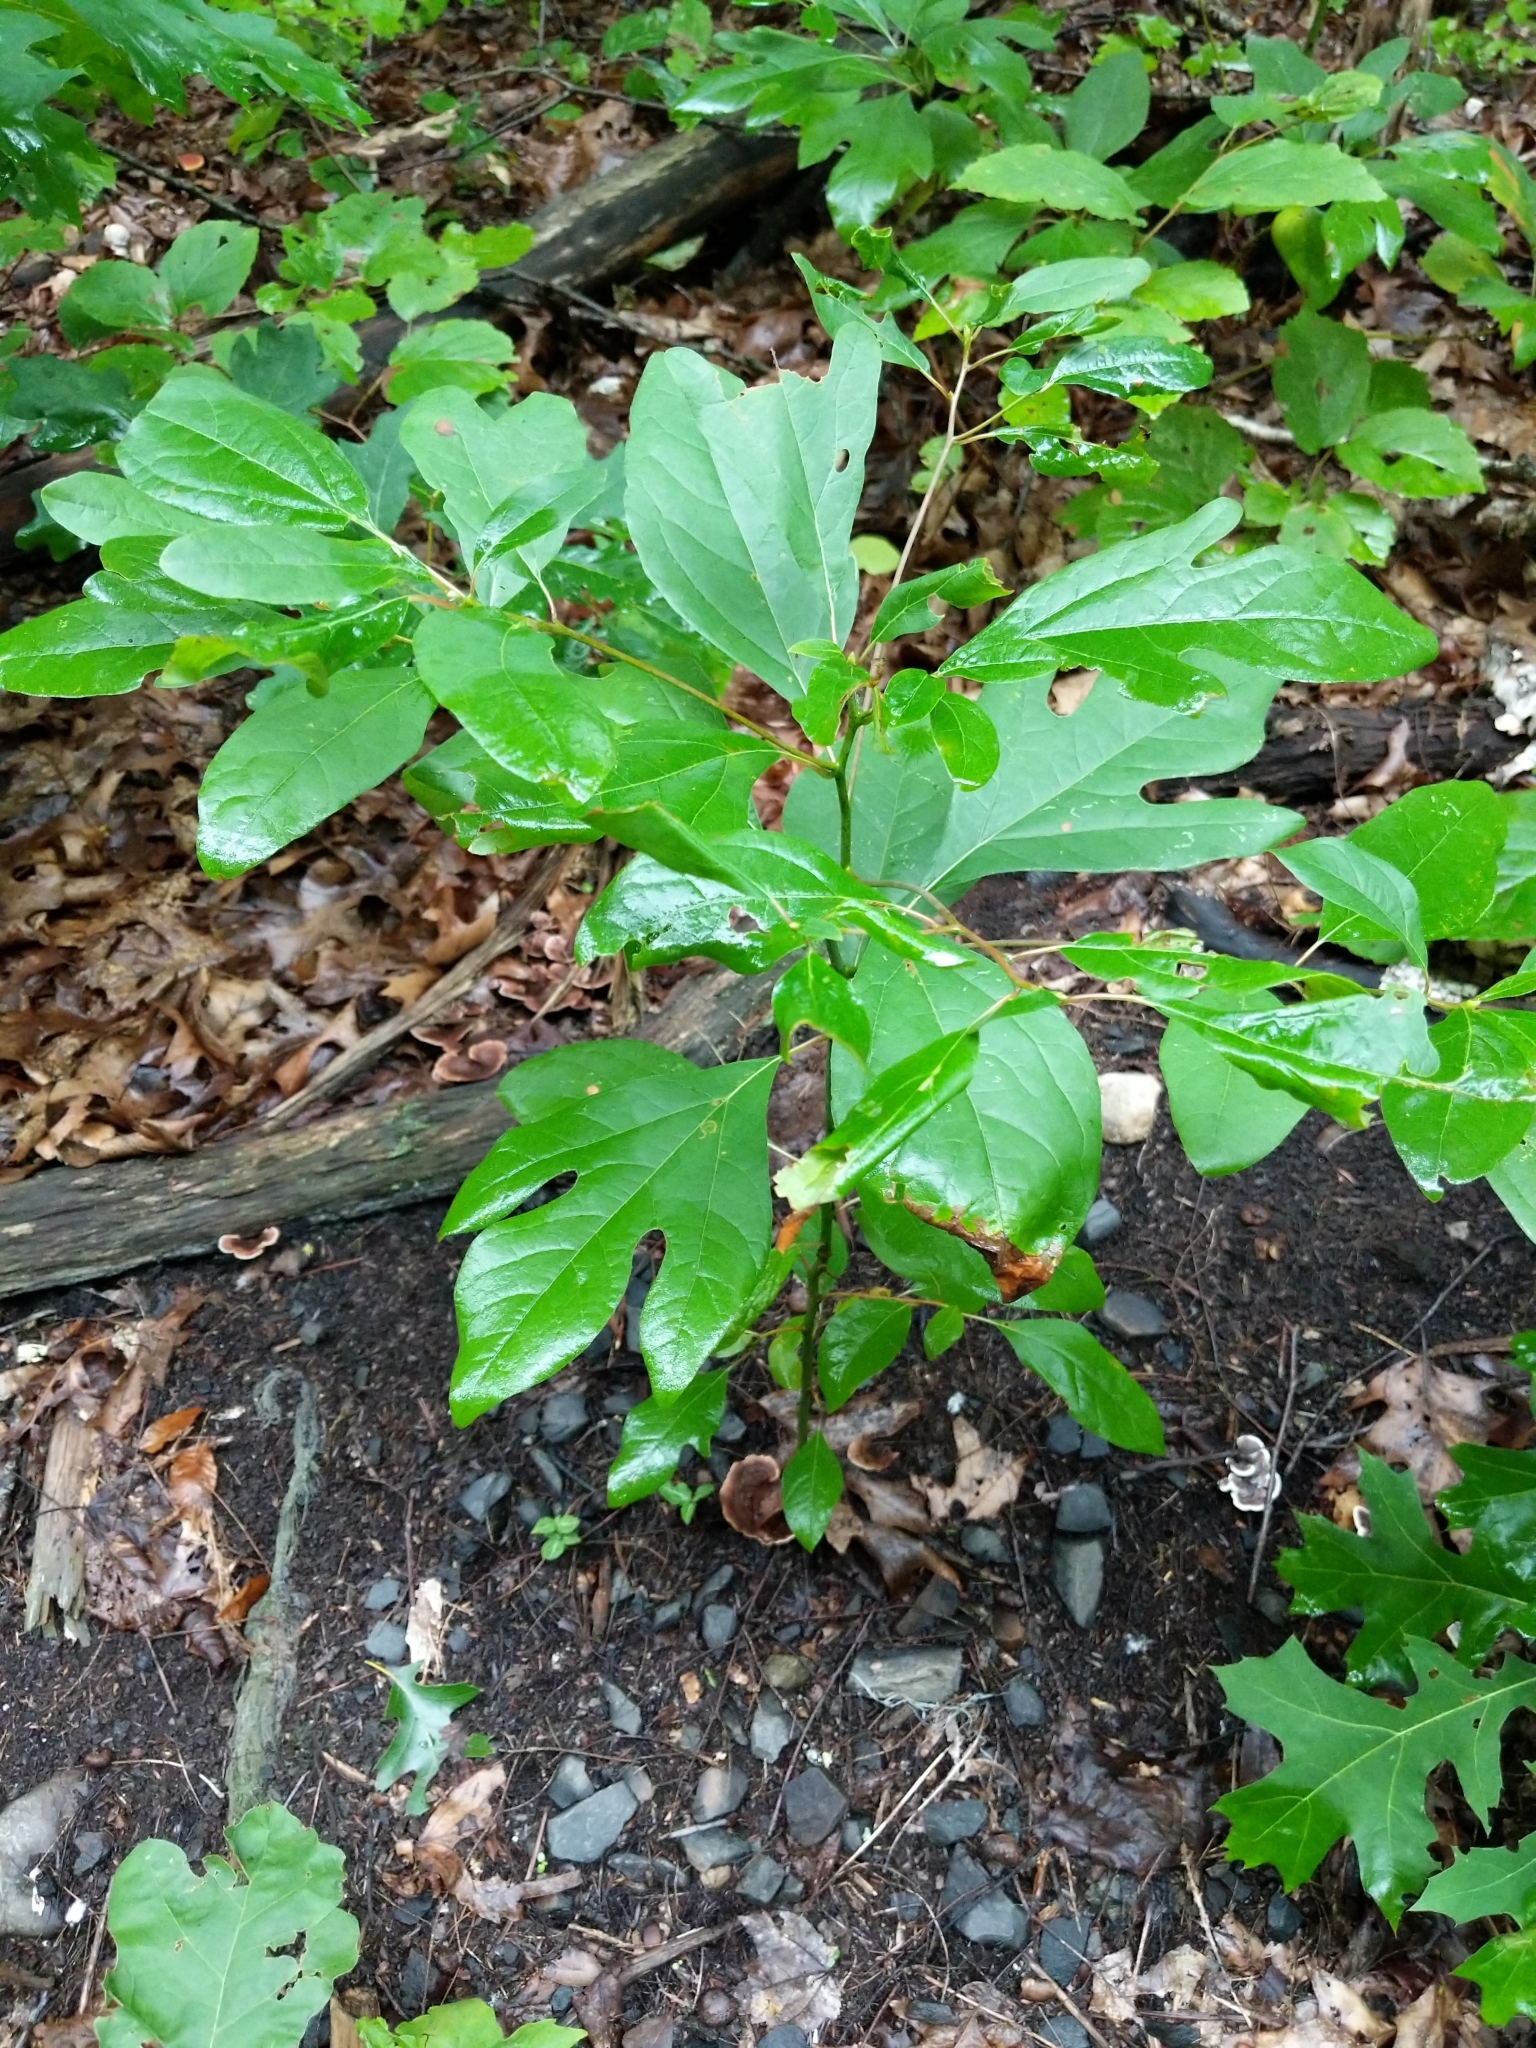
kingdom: Plantae
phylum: Tracheophyta
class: Magnoliopsida
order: Laurales
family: Lauraceae
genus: Sassafras
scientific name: Sassafras albidum
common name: Sassafras
